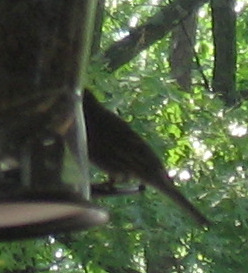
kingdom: Animalia
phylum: Chordata
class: Aves
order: Passeriformes
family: Fringillidae
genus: Haemorhous
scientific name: Haemorhous mexicanus
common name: House finch
